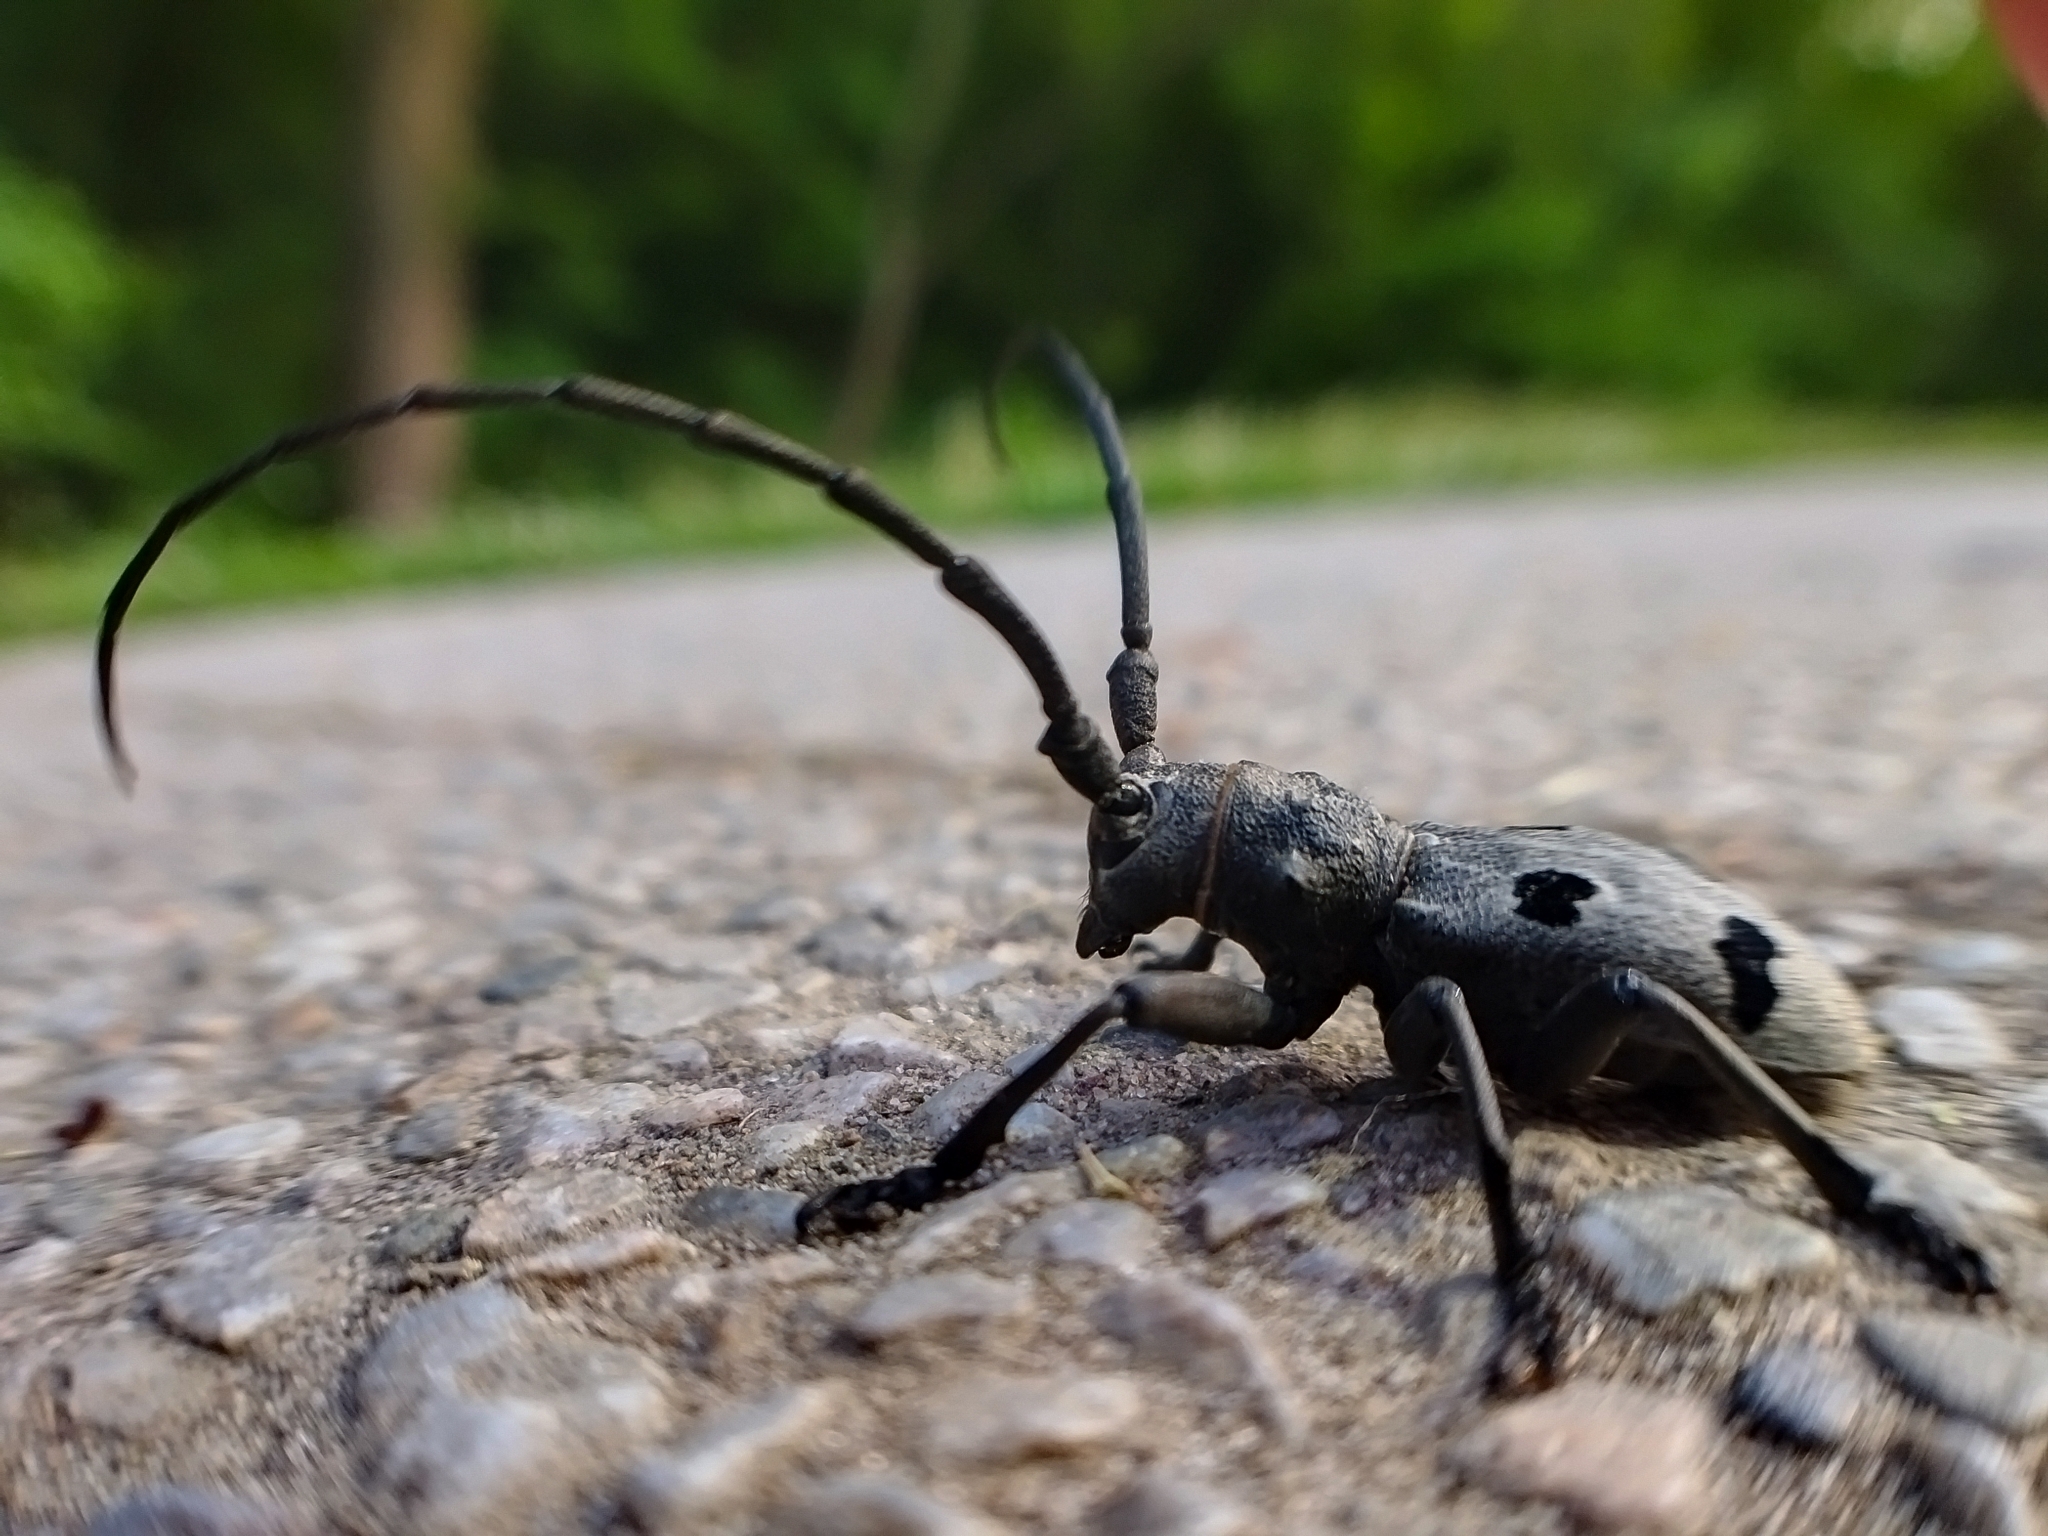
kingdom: Animalia
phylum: Arthropoda
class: Insecta
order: Coleoptera
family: Cerambycidae
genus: Morimus
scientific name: Morimus funereus
